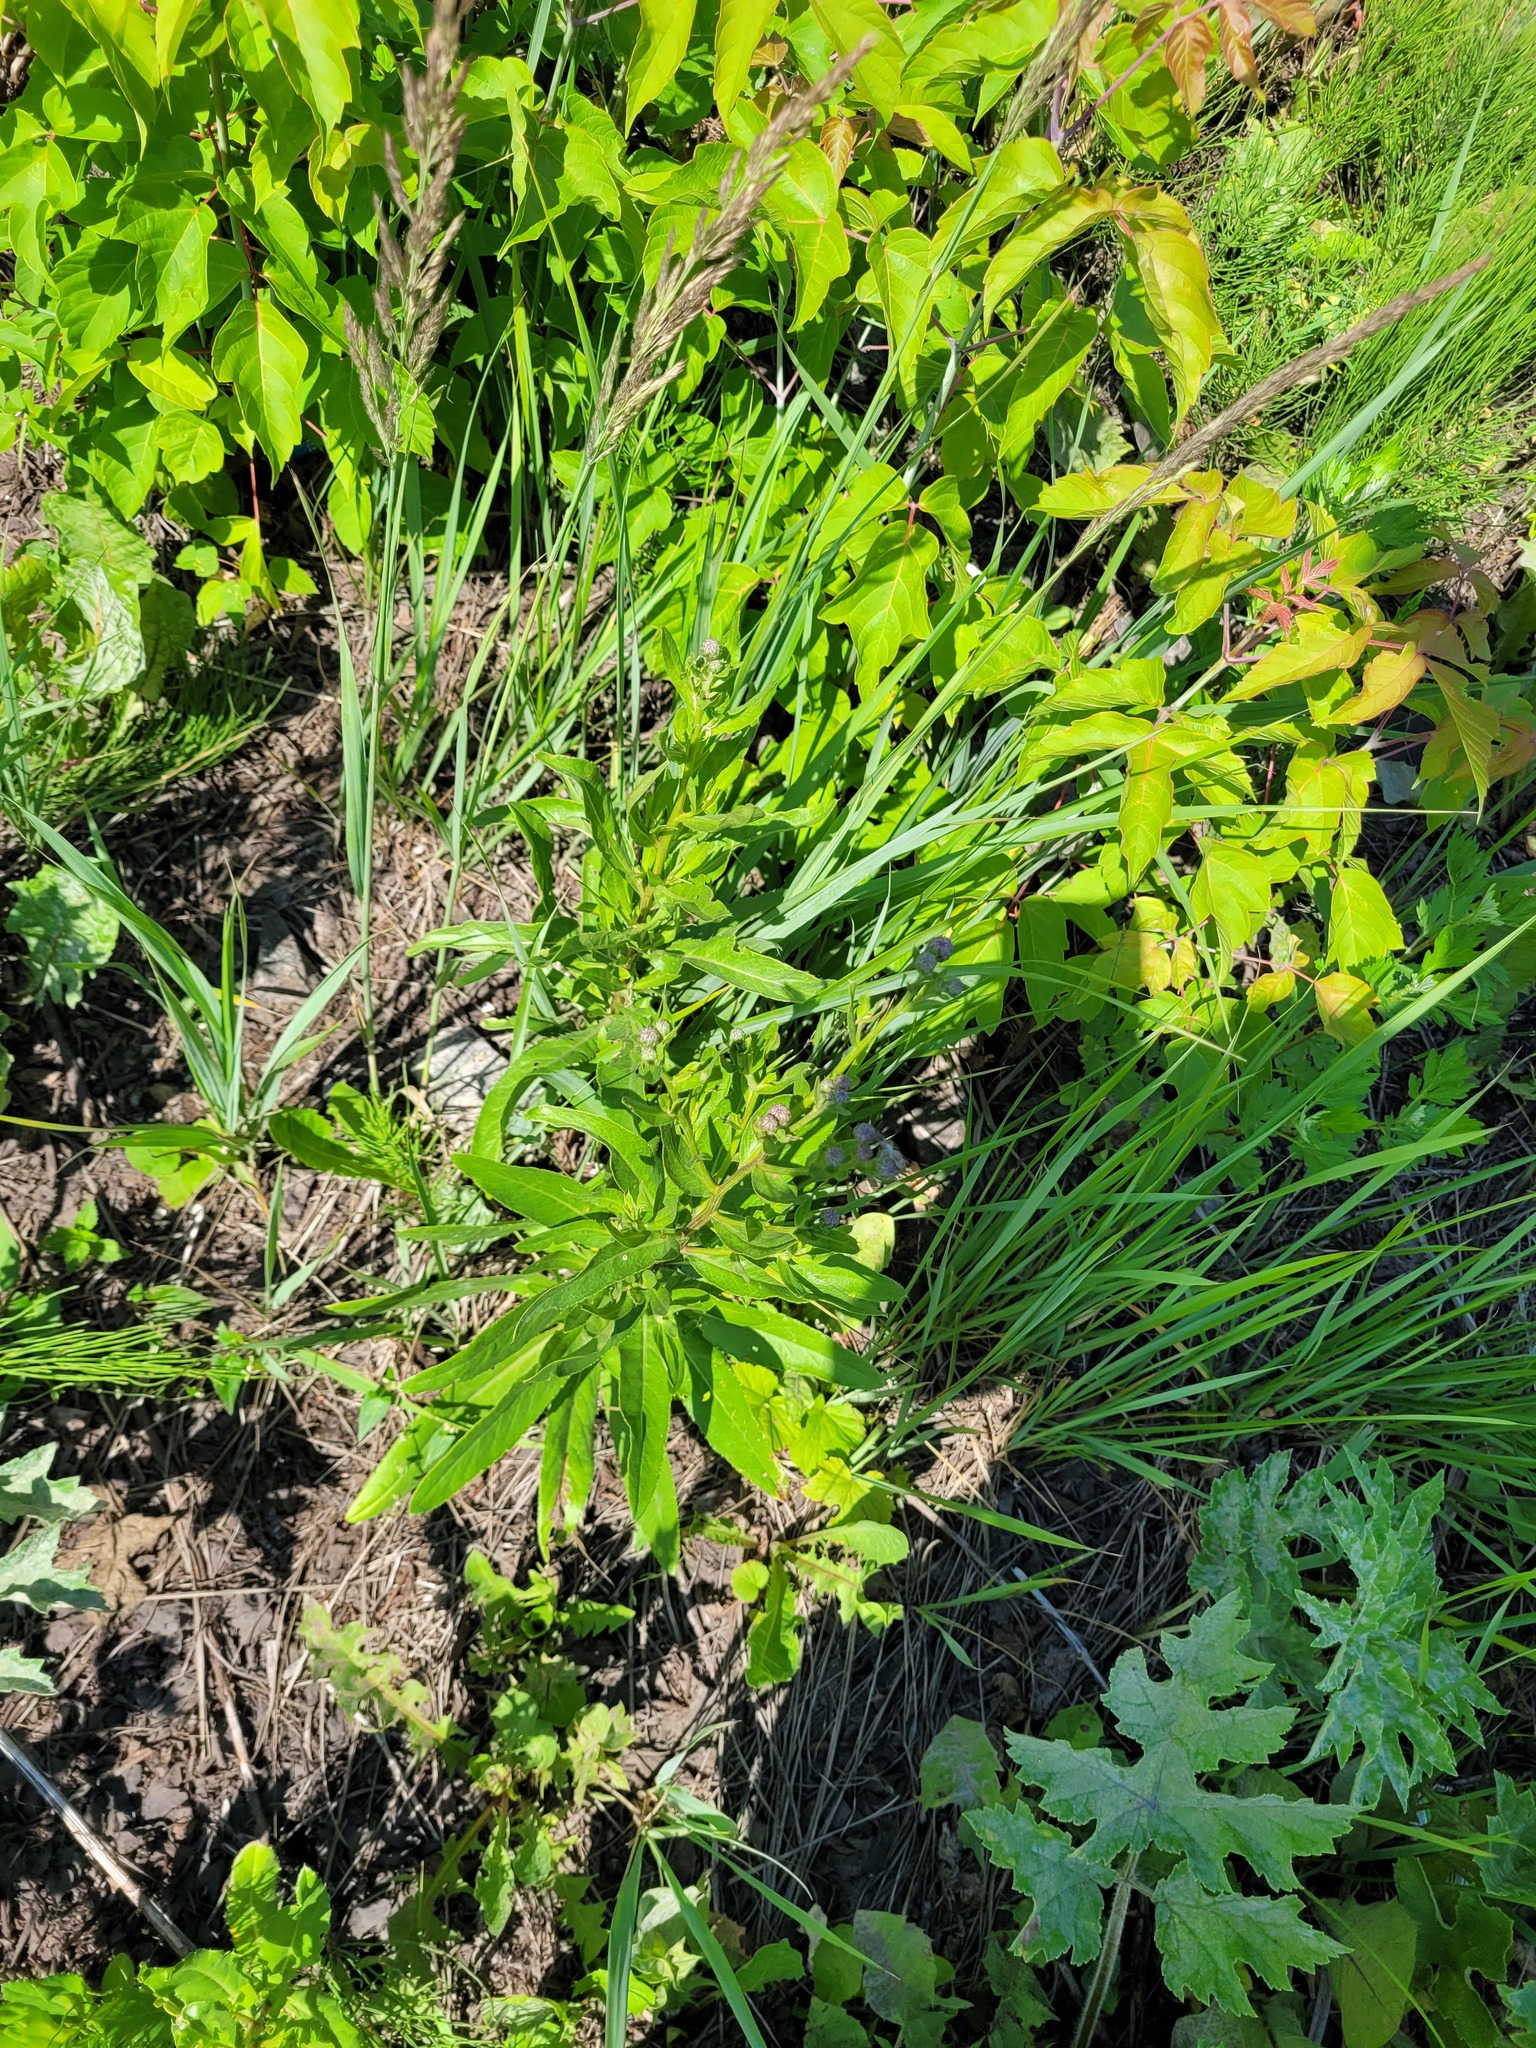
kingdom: Plantae
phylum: Tracheophyta
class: Magnoliopsida
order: Asterales
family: Asteraceae
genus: Cirsium
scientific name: Cirsium arvense
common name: Creeping thistle
